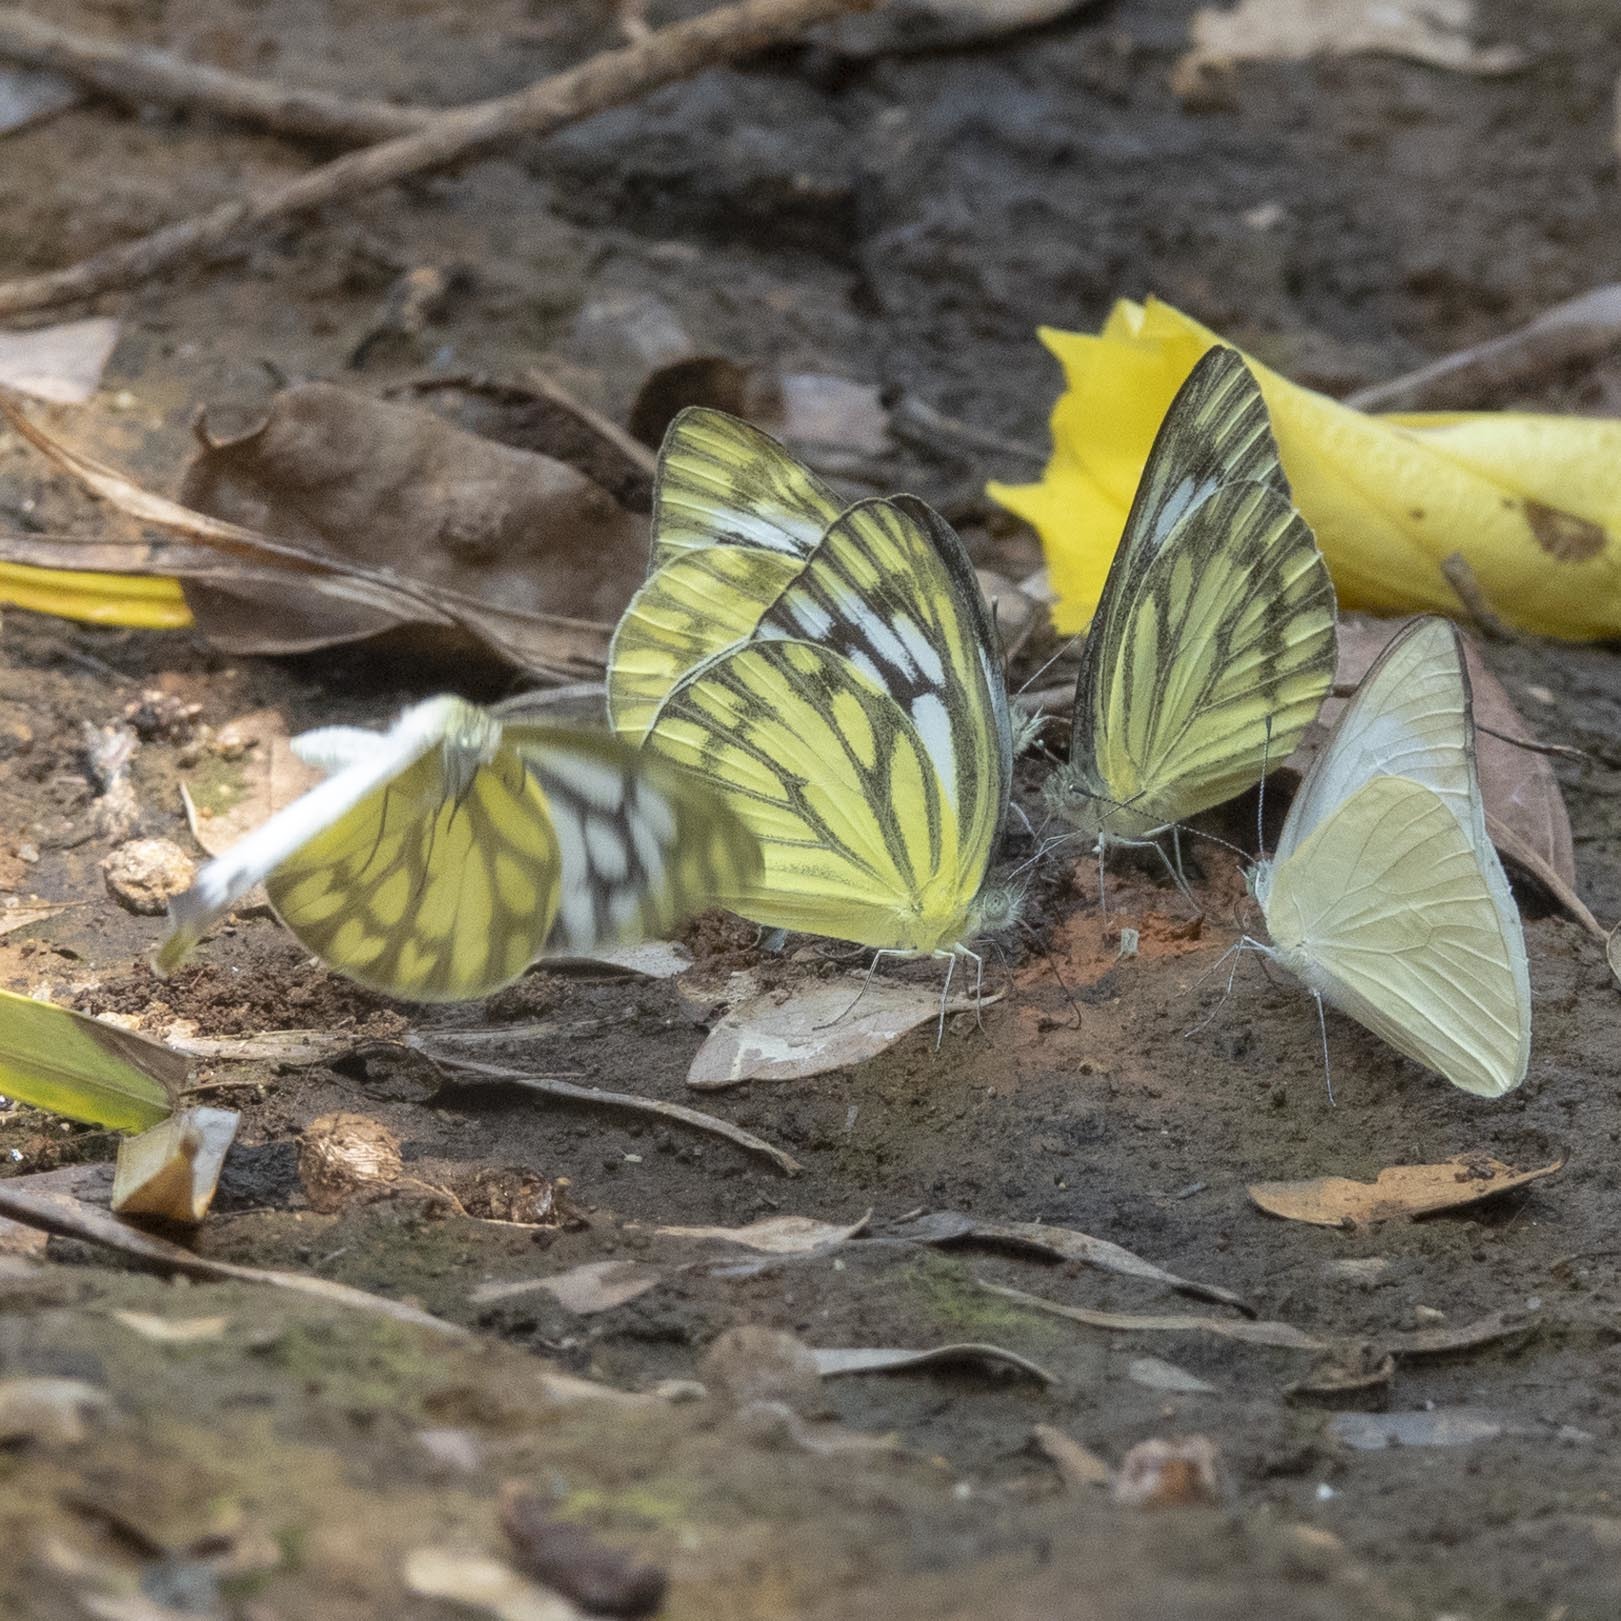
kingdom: Animalia
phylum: Arthropoda
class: Insecta
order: Lepidoptera
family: Pieridae
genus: Cepora
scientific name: Cepora nerissa
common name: Common gull
